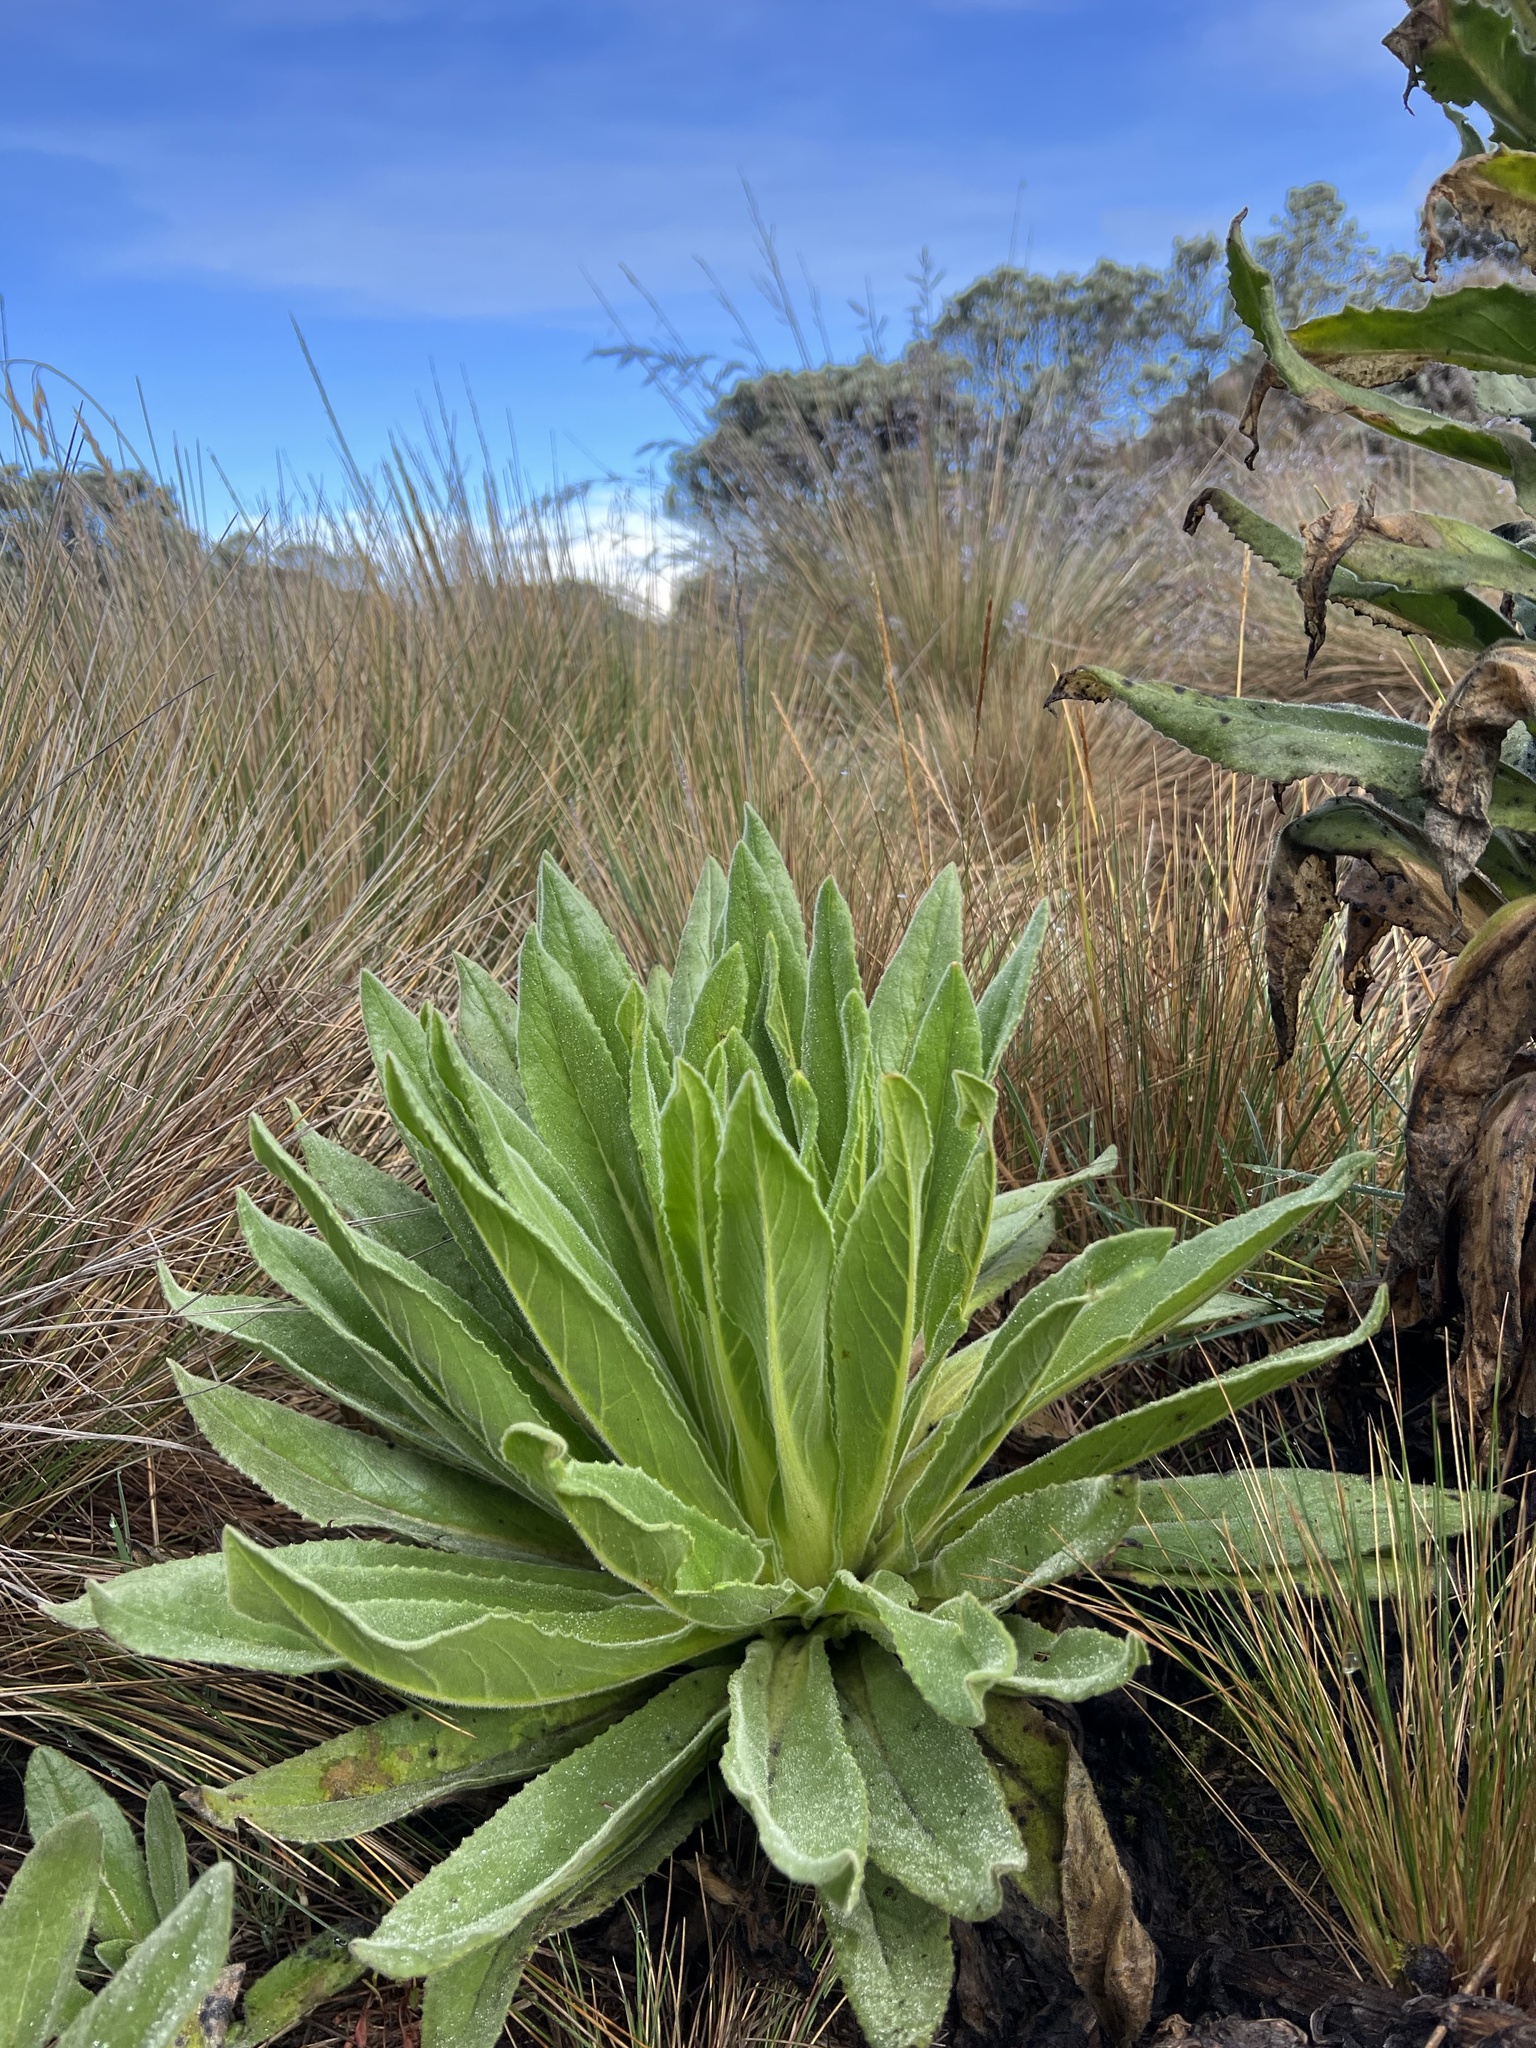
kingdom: Plantae
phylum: Tracheophyta
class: Magnoliopsida
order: Asterales
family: Asteraceae
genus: Senecio
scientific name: Senecio isabelis
